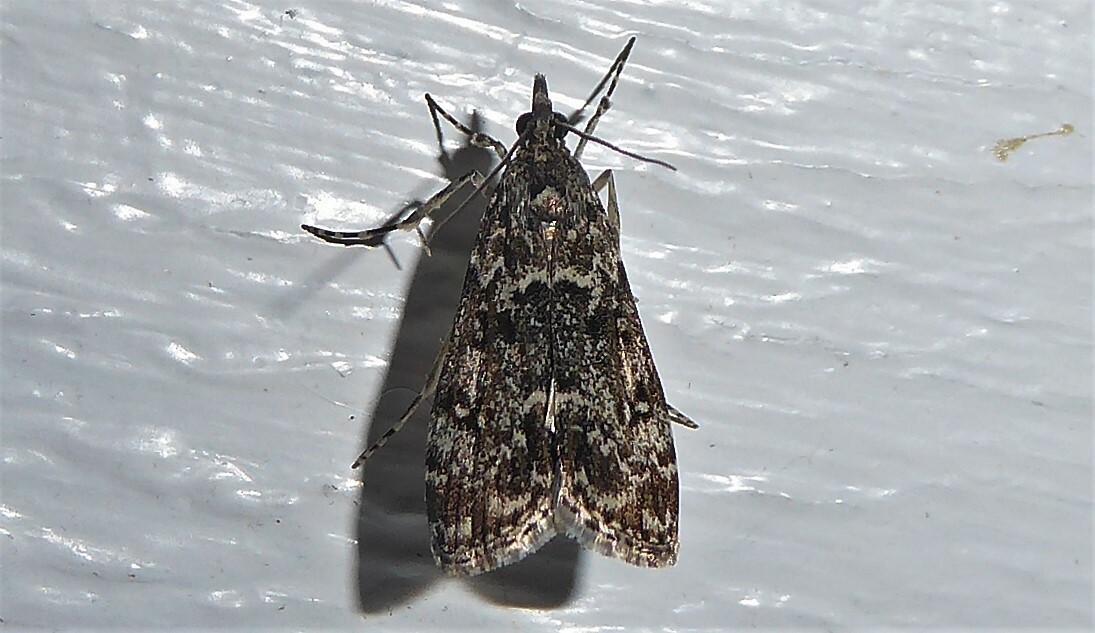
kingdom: Animalia
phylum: Arthropoda
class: Insecta
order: Lepidoptera
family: Crambidae
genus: Eudonia
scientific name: Eudonia philerga
